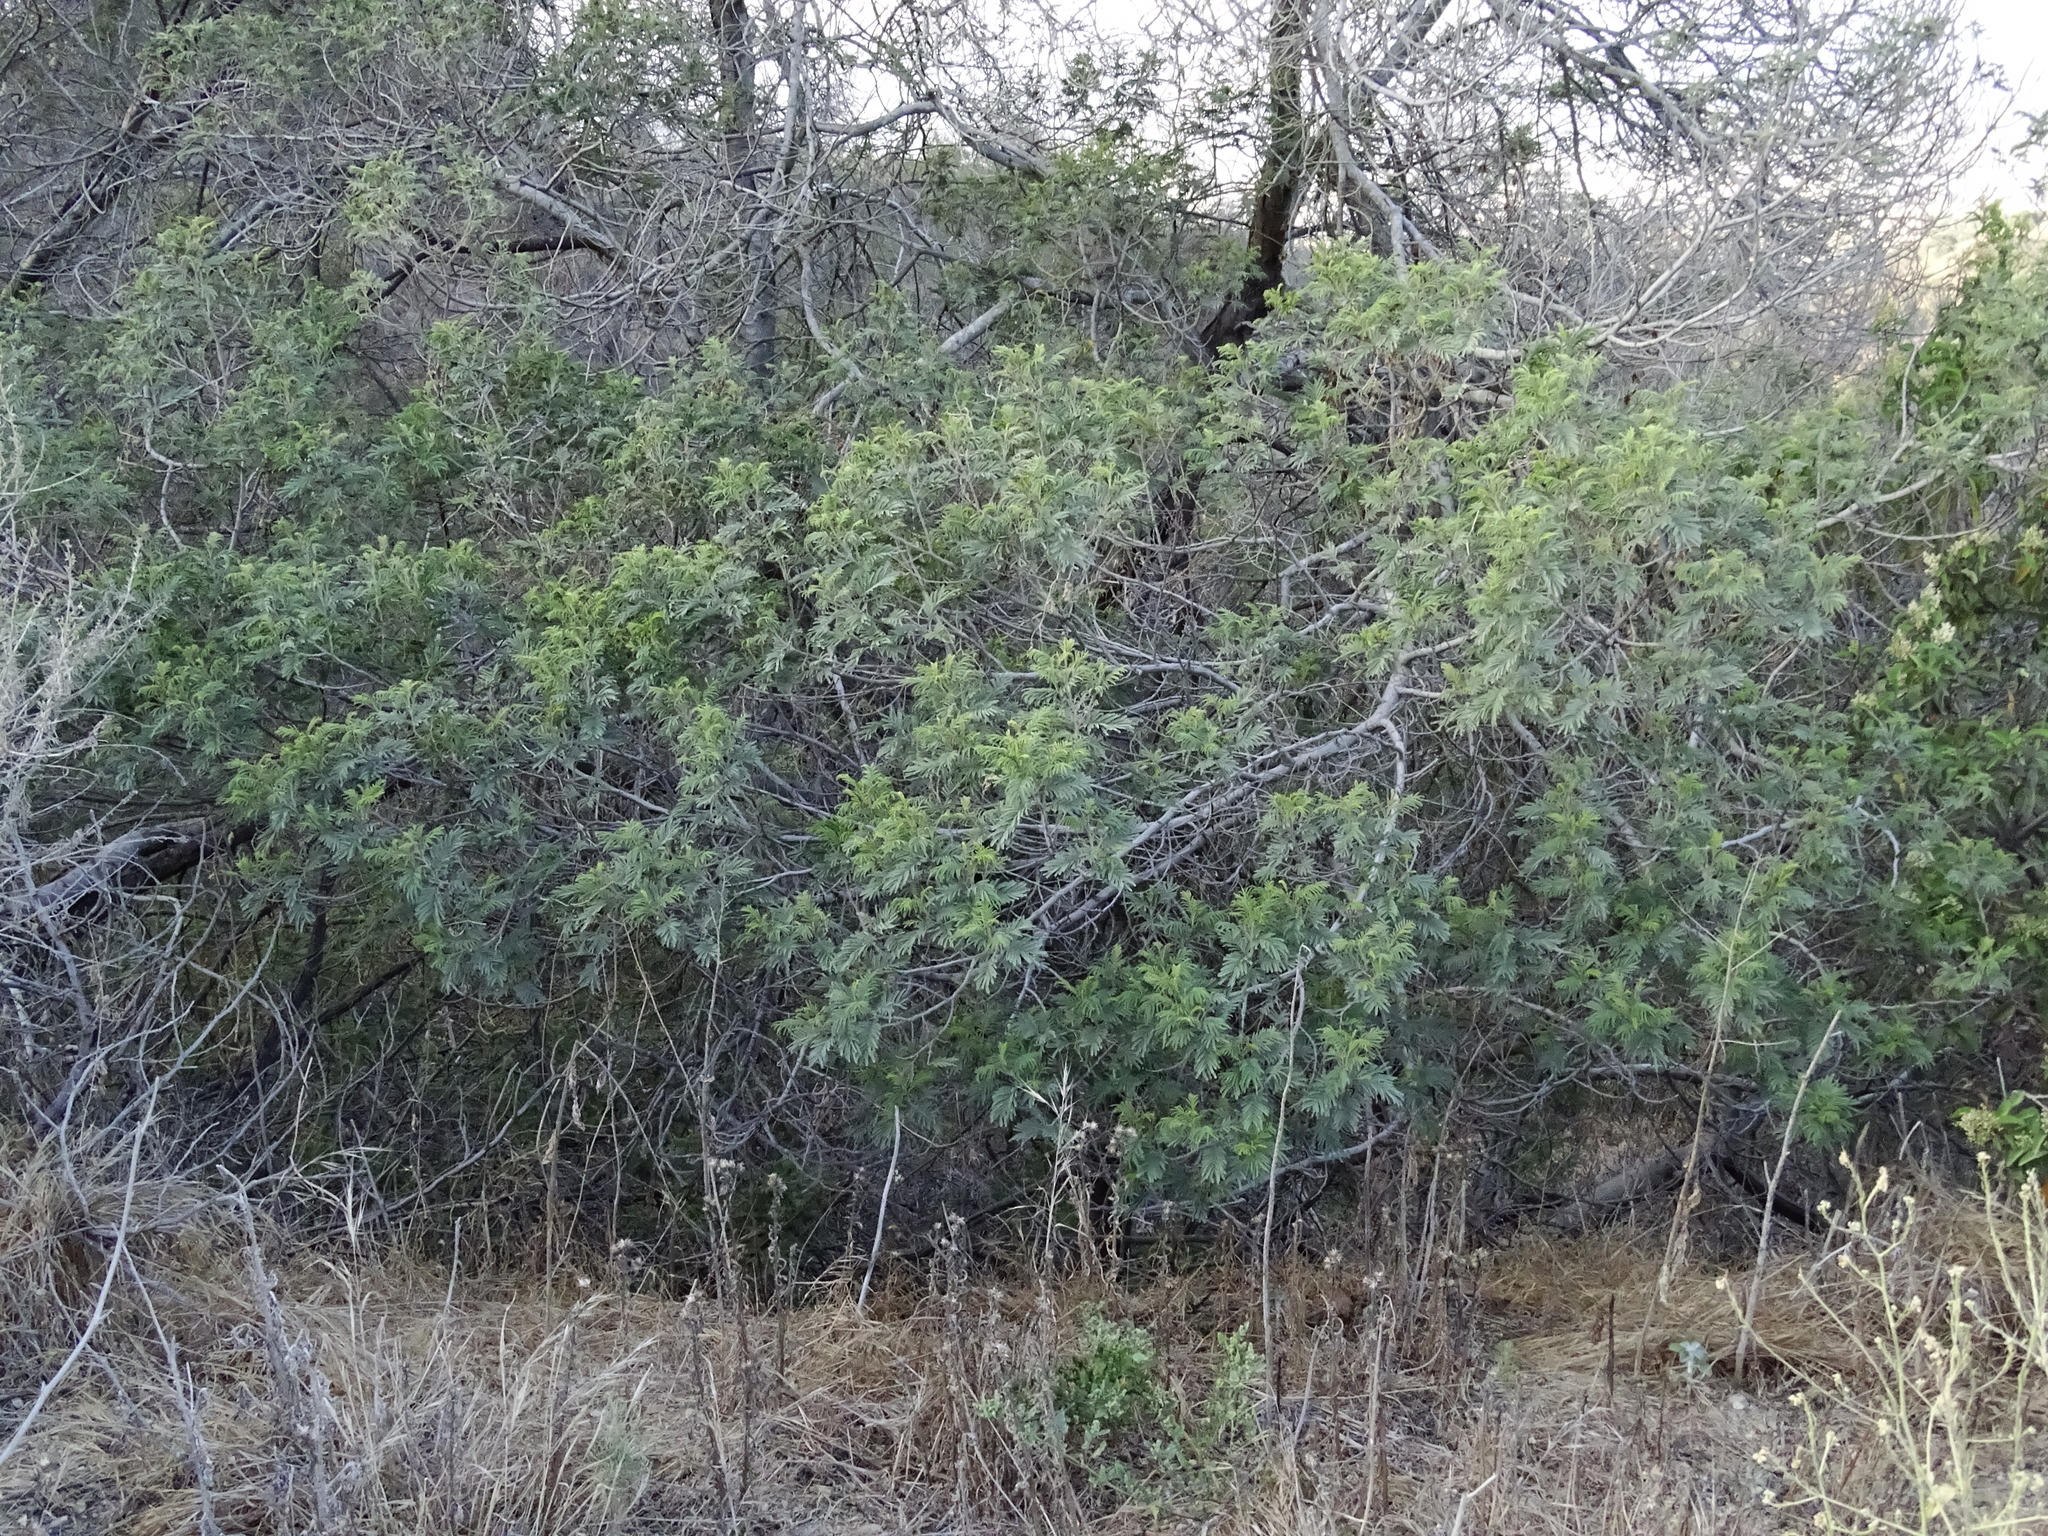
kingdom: Plantae
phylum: Tracheophyta
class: Magnoliopsida
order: Fabales
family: Fabaceae
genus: Acacia
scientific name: Acacia dealbata
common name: Silver wattle
